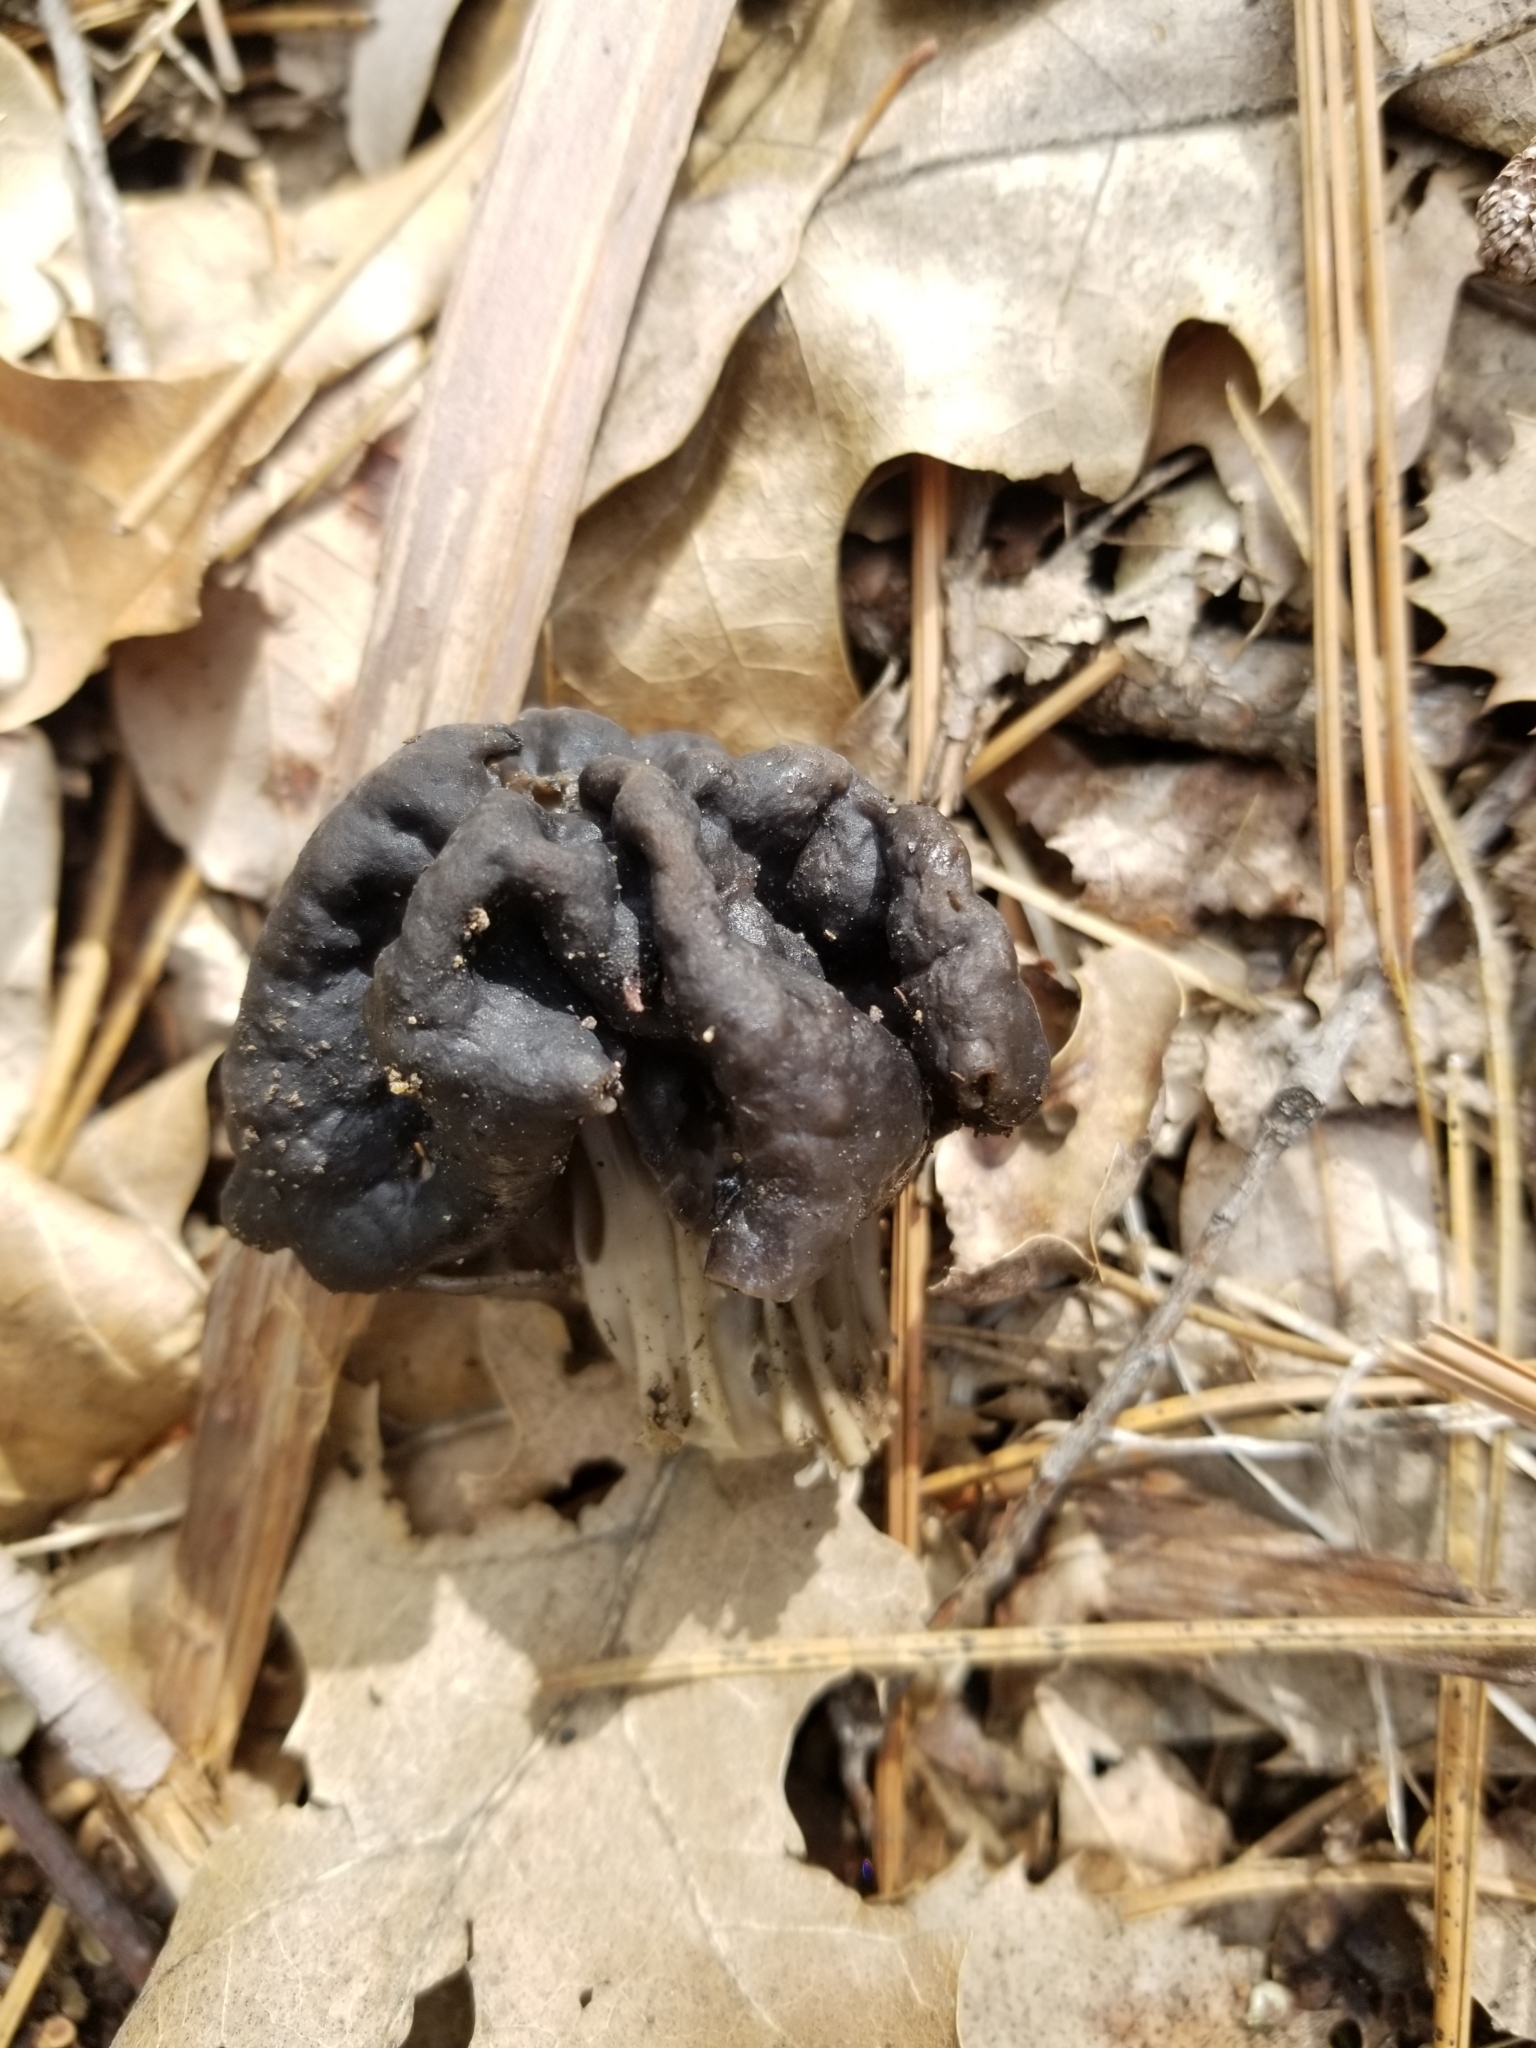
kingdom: Fungi
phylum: Ascomycota
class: Pezizomycetes
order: Pezizales
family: Helvellaceae
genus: Helvella
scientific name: Helvella dryophila
